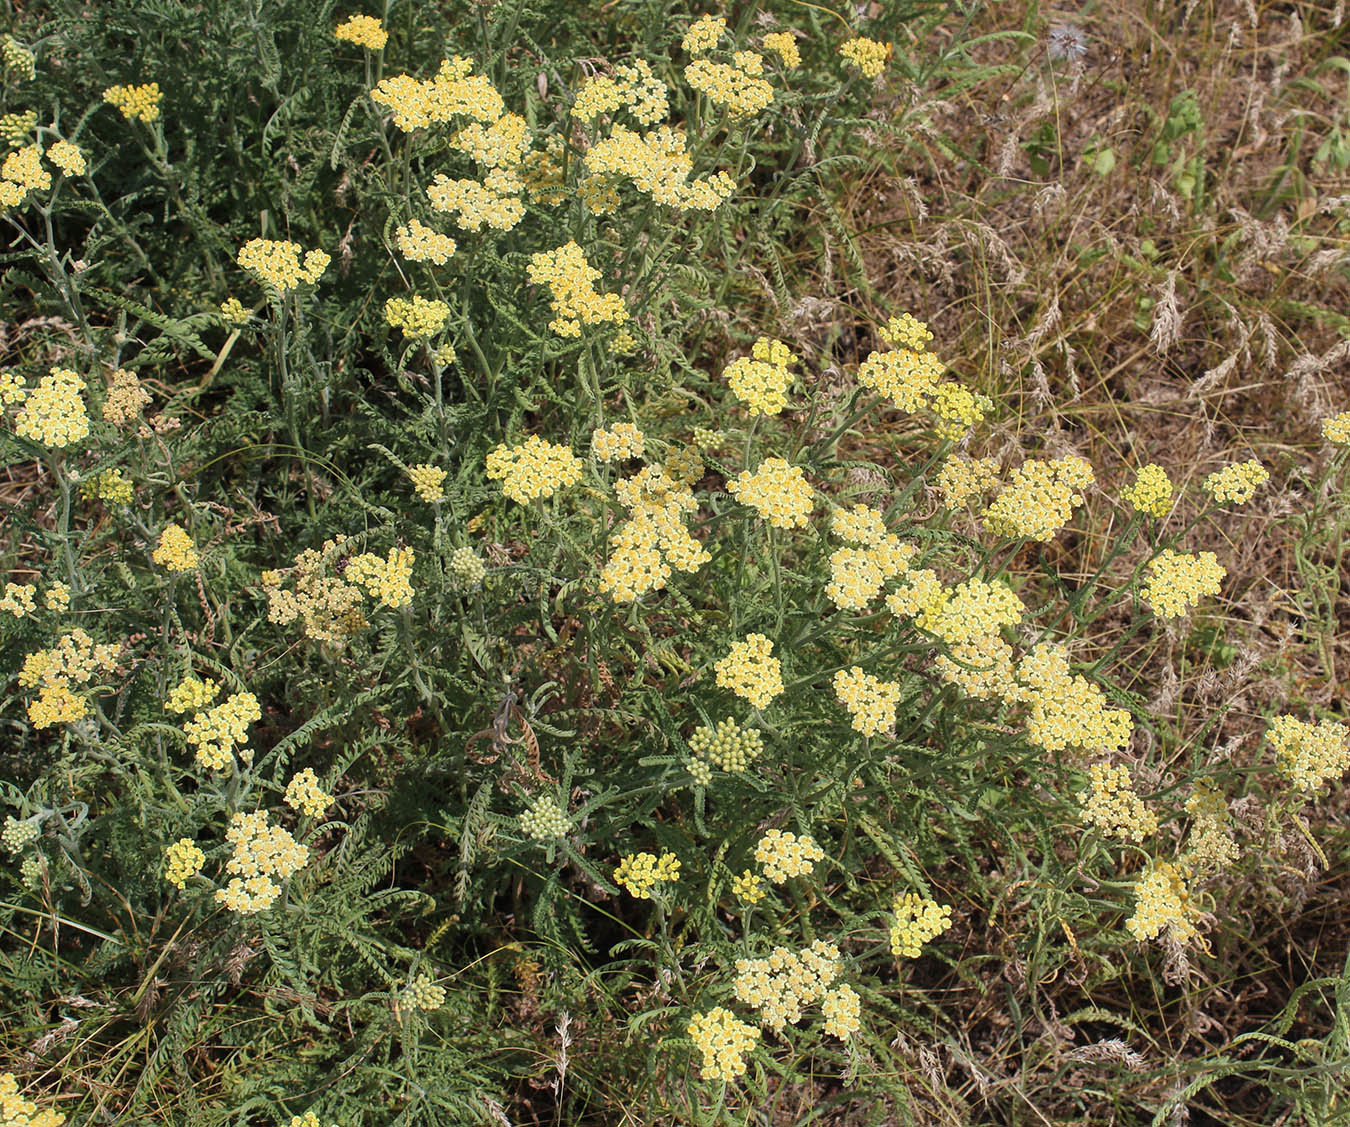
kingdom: Plantae
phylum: Tracheophyta
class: Magnoliopsida
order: Asterales
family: Asteraceae
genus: Achillea
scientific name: Achillea submicrantha
